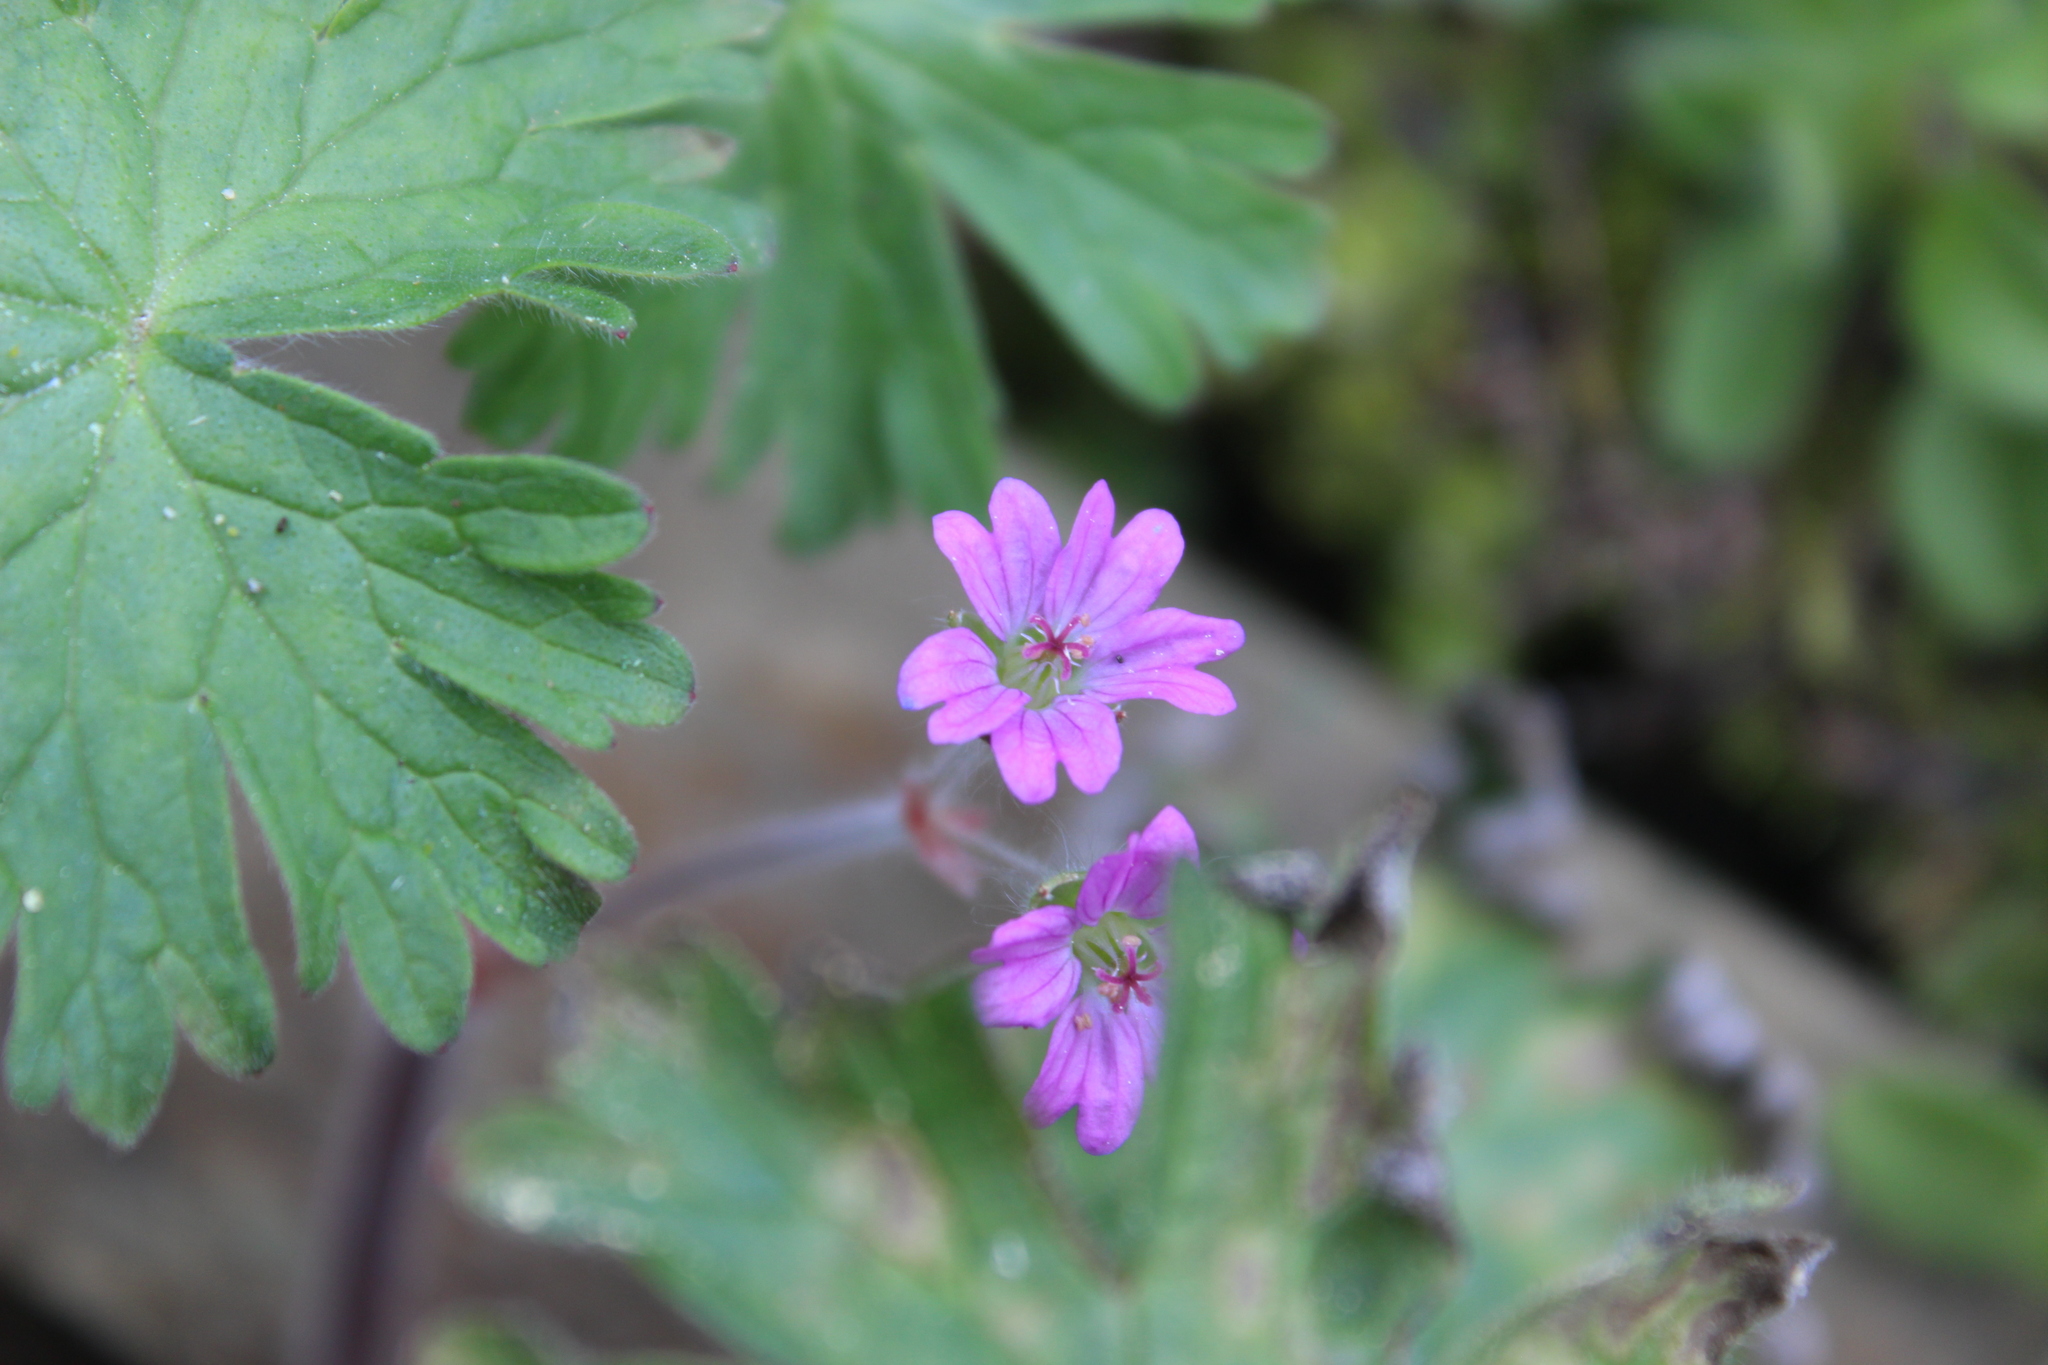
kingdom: Plantae
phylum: Tracheophyta
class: Magnoliopsida
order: Geraniales
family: Geraniaceae
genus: Geranium
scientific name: Geranium molle
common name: Dove's-foot crane's-bill
